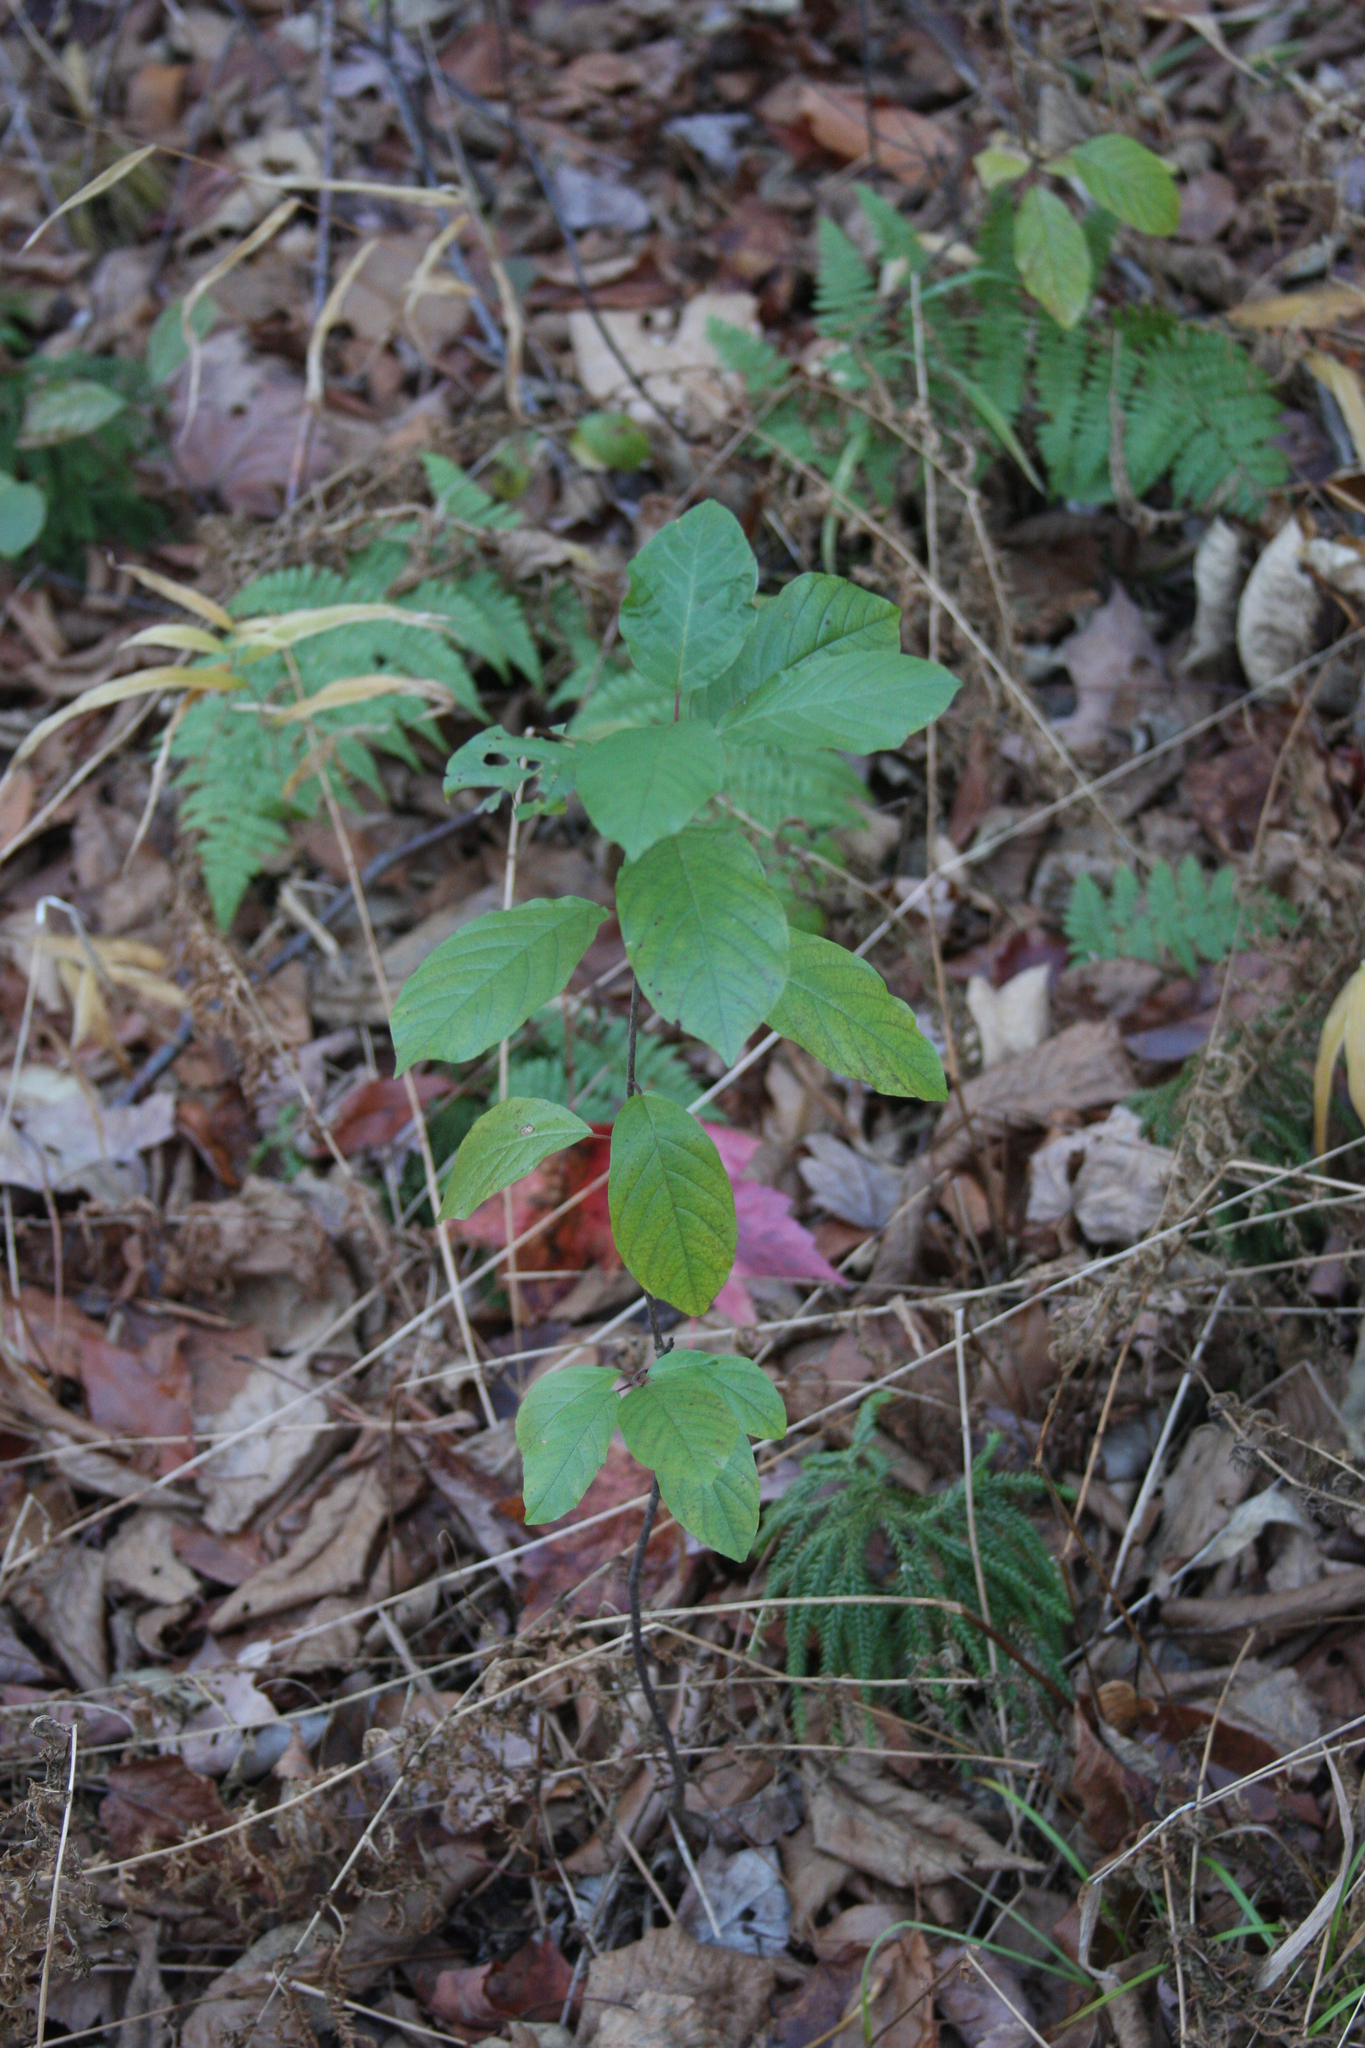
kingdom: Plantae
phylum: Tracheophyta
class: Magnoliopsida
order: Rosales
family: Rhamnaceae
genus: Frangula
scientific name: Frangula alnus
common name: Alder buckthorn
